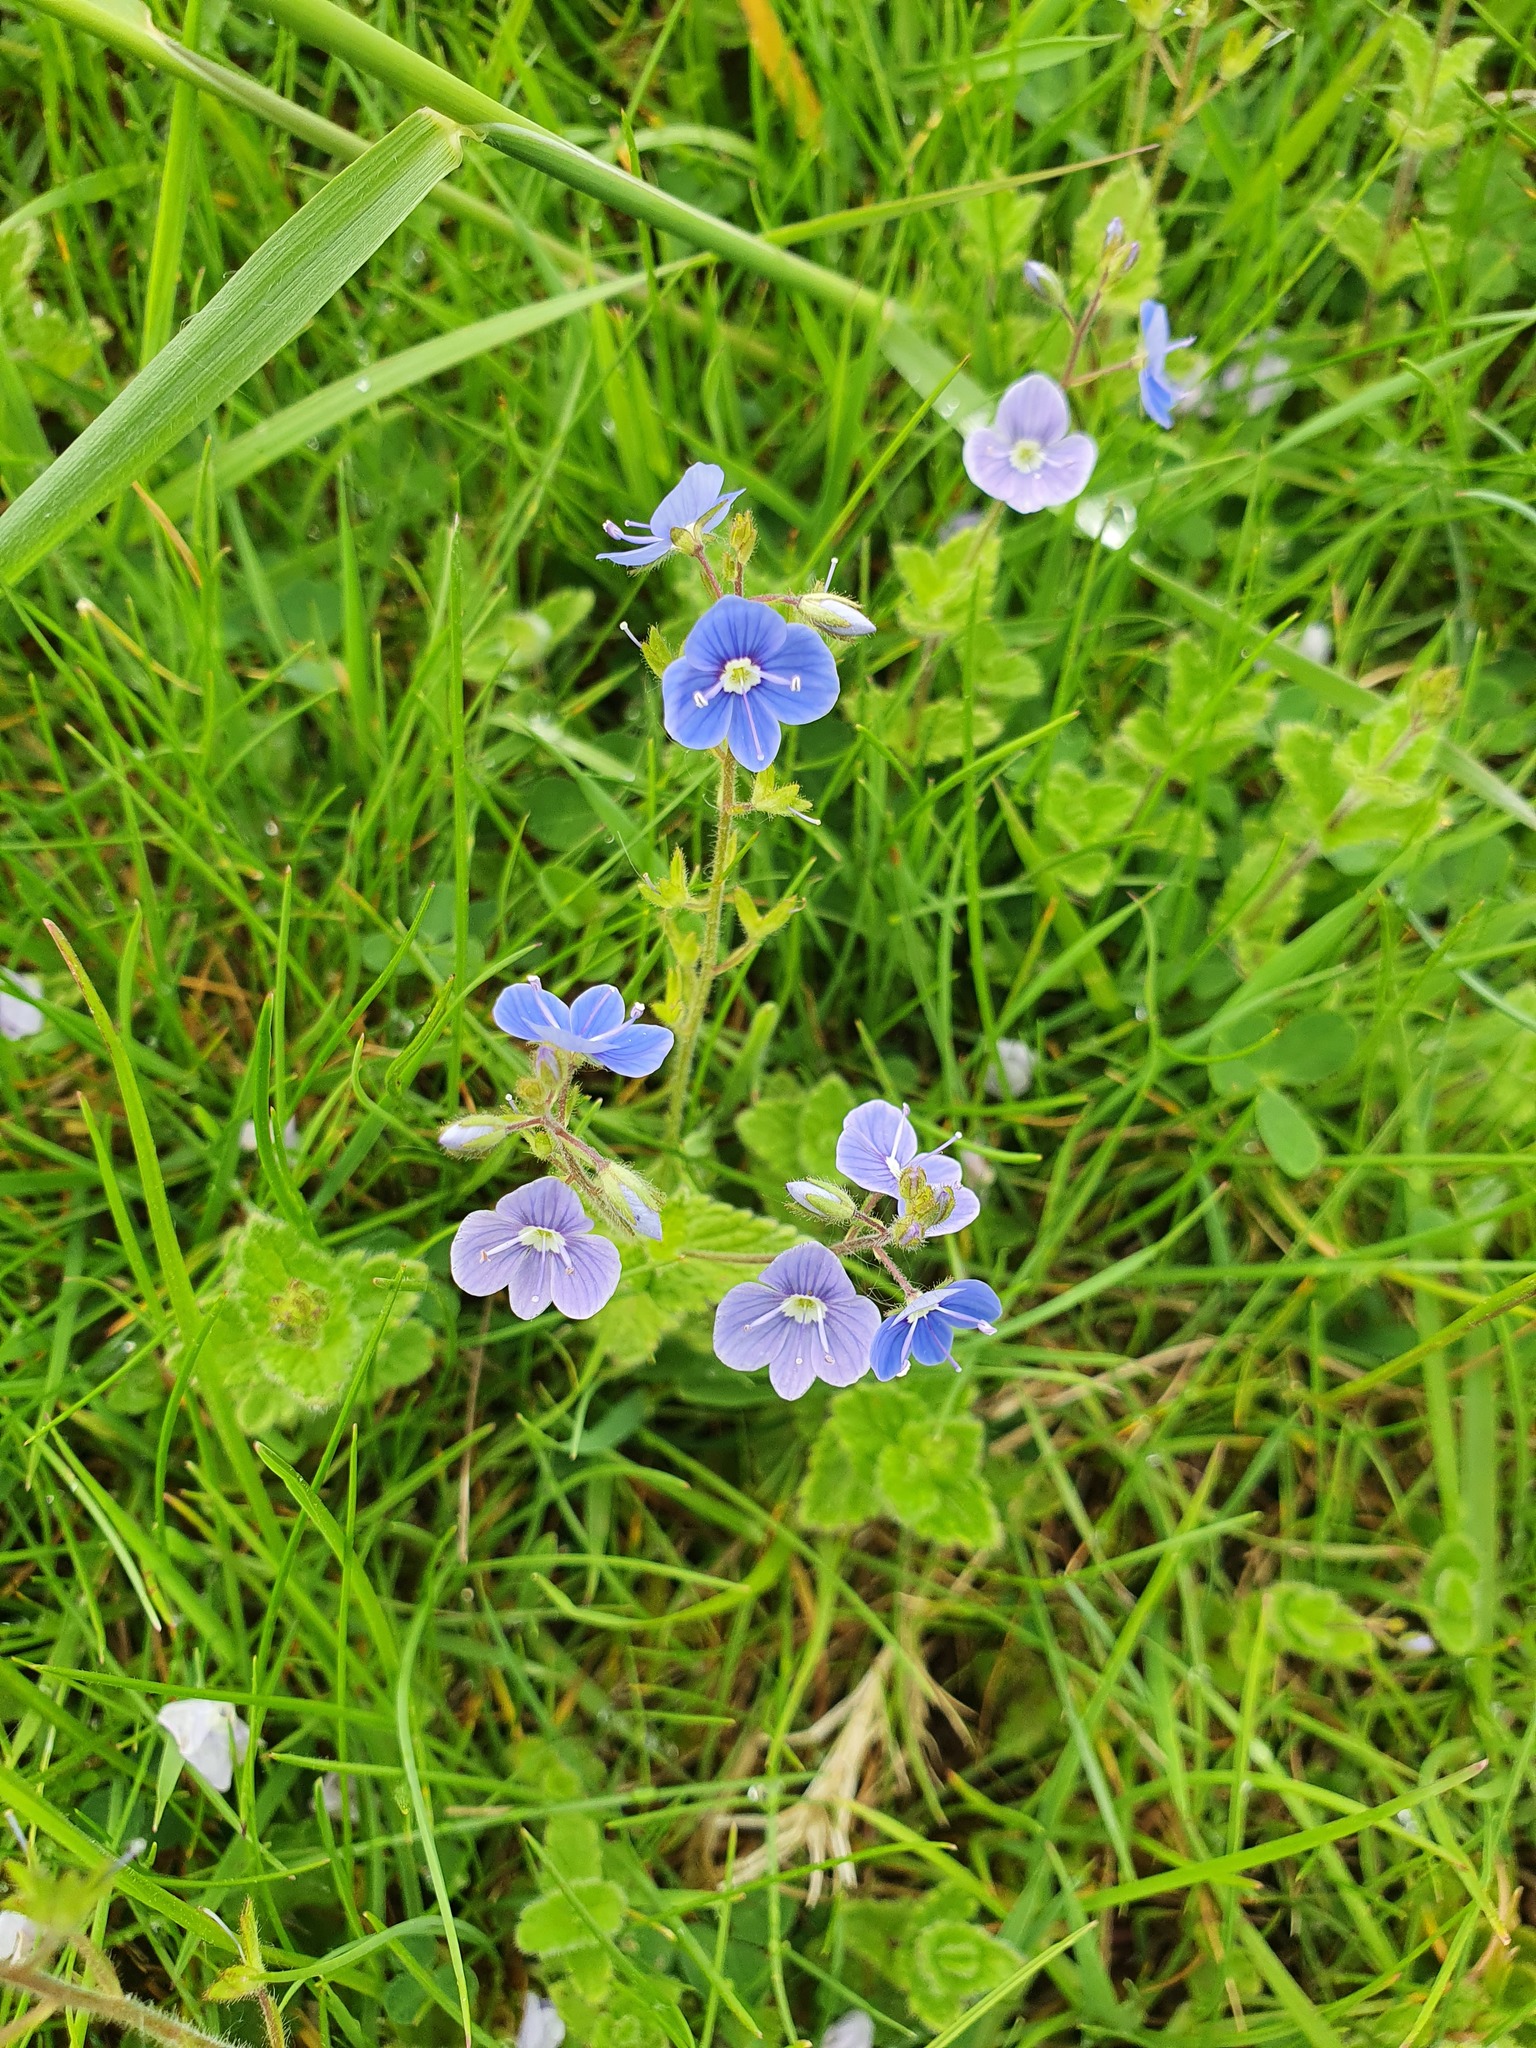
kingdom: Plantae
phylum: Tracheophyta
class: Magnoliopsida
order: Lamiales
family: Plantaginaceae
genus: Veronica
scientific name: Veronica chamaedrys
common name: Germander speedwell
